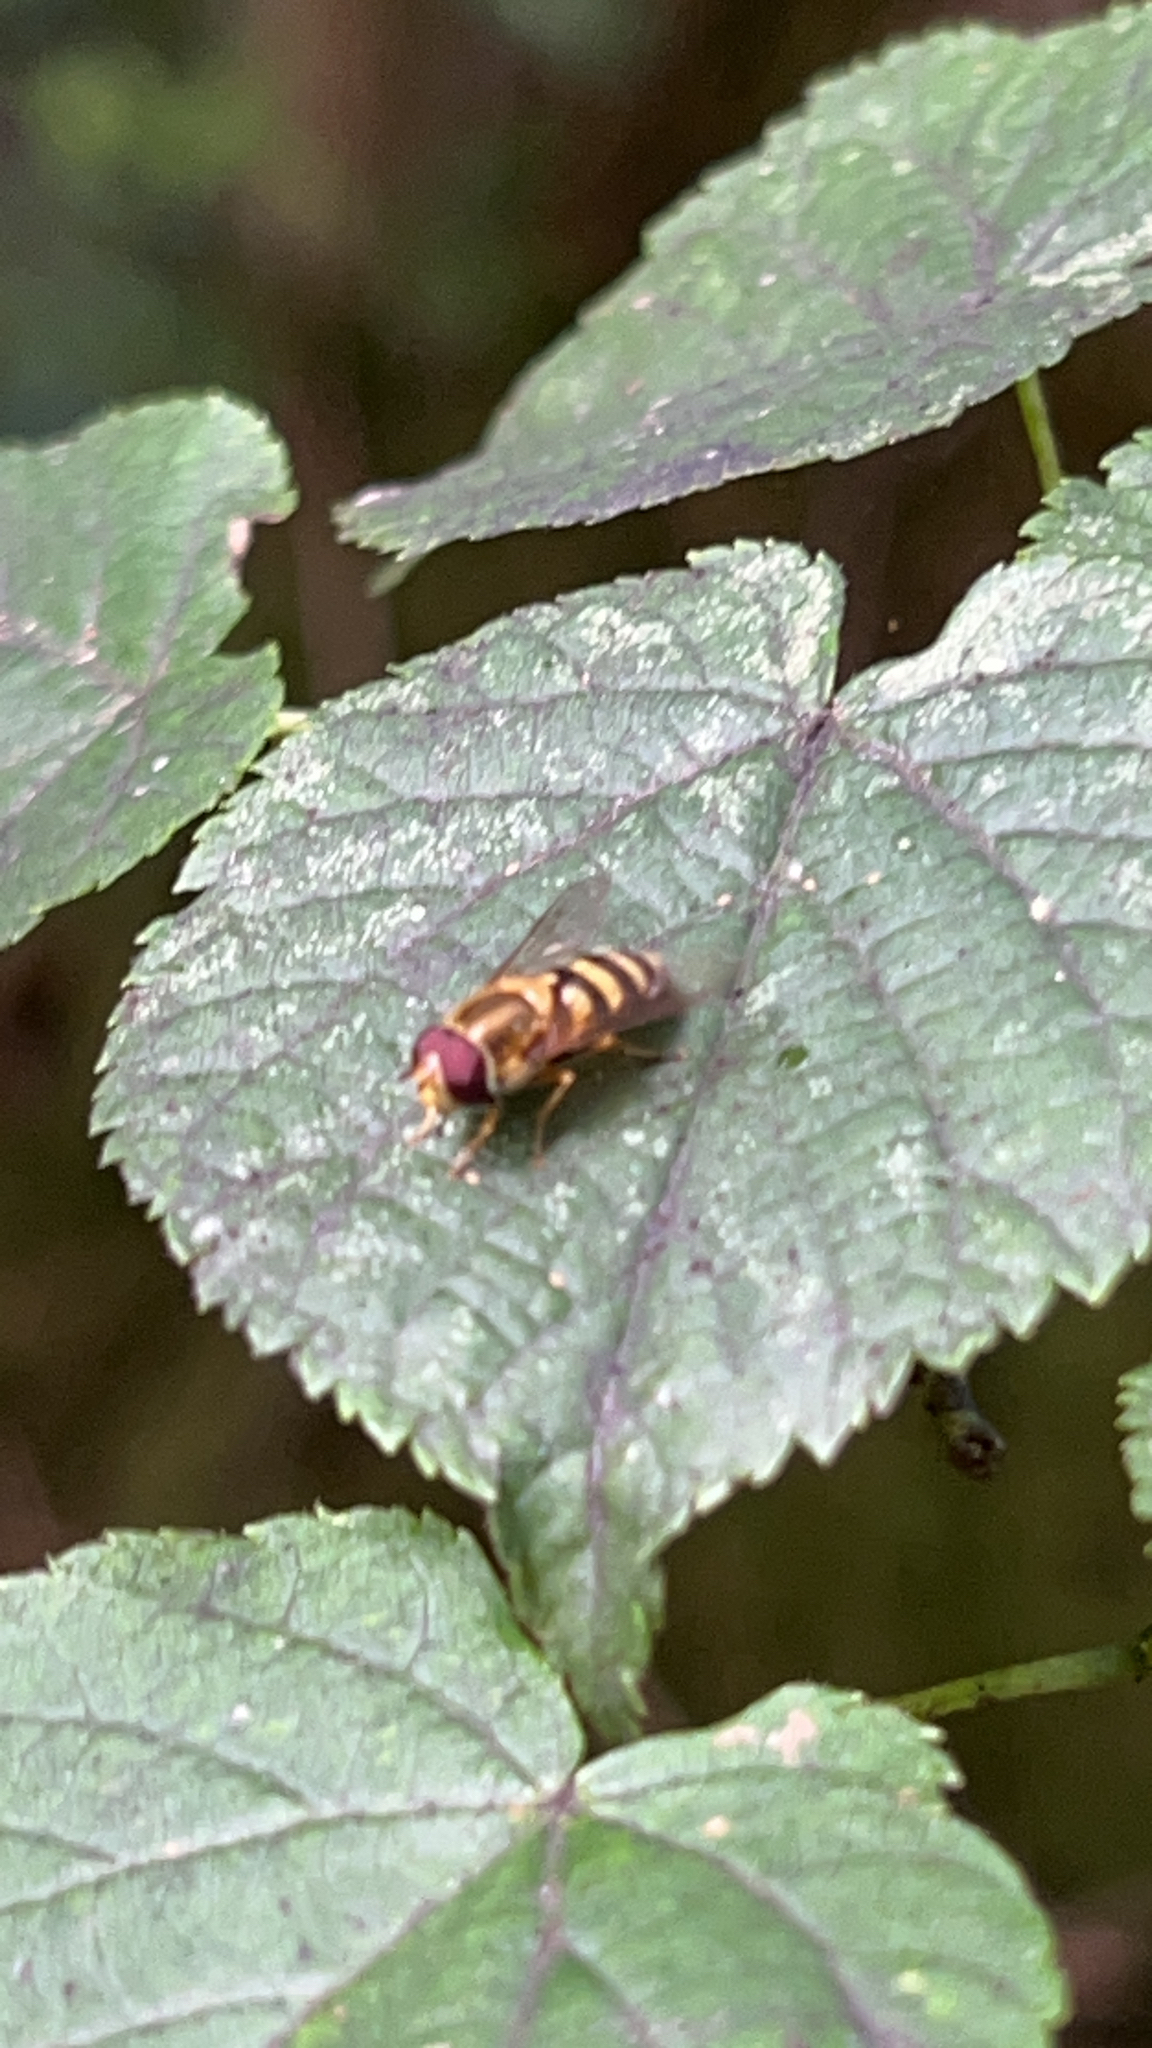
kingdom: Animalia
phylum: Arthropoda
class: Insecta
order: Diptera
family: Syrphidae
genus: Syrphus
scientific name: Syrphus
